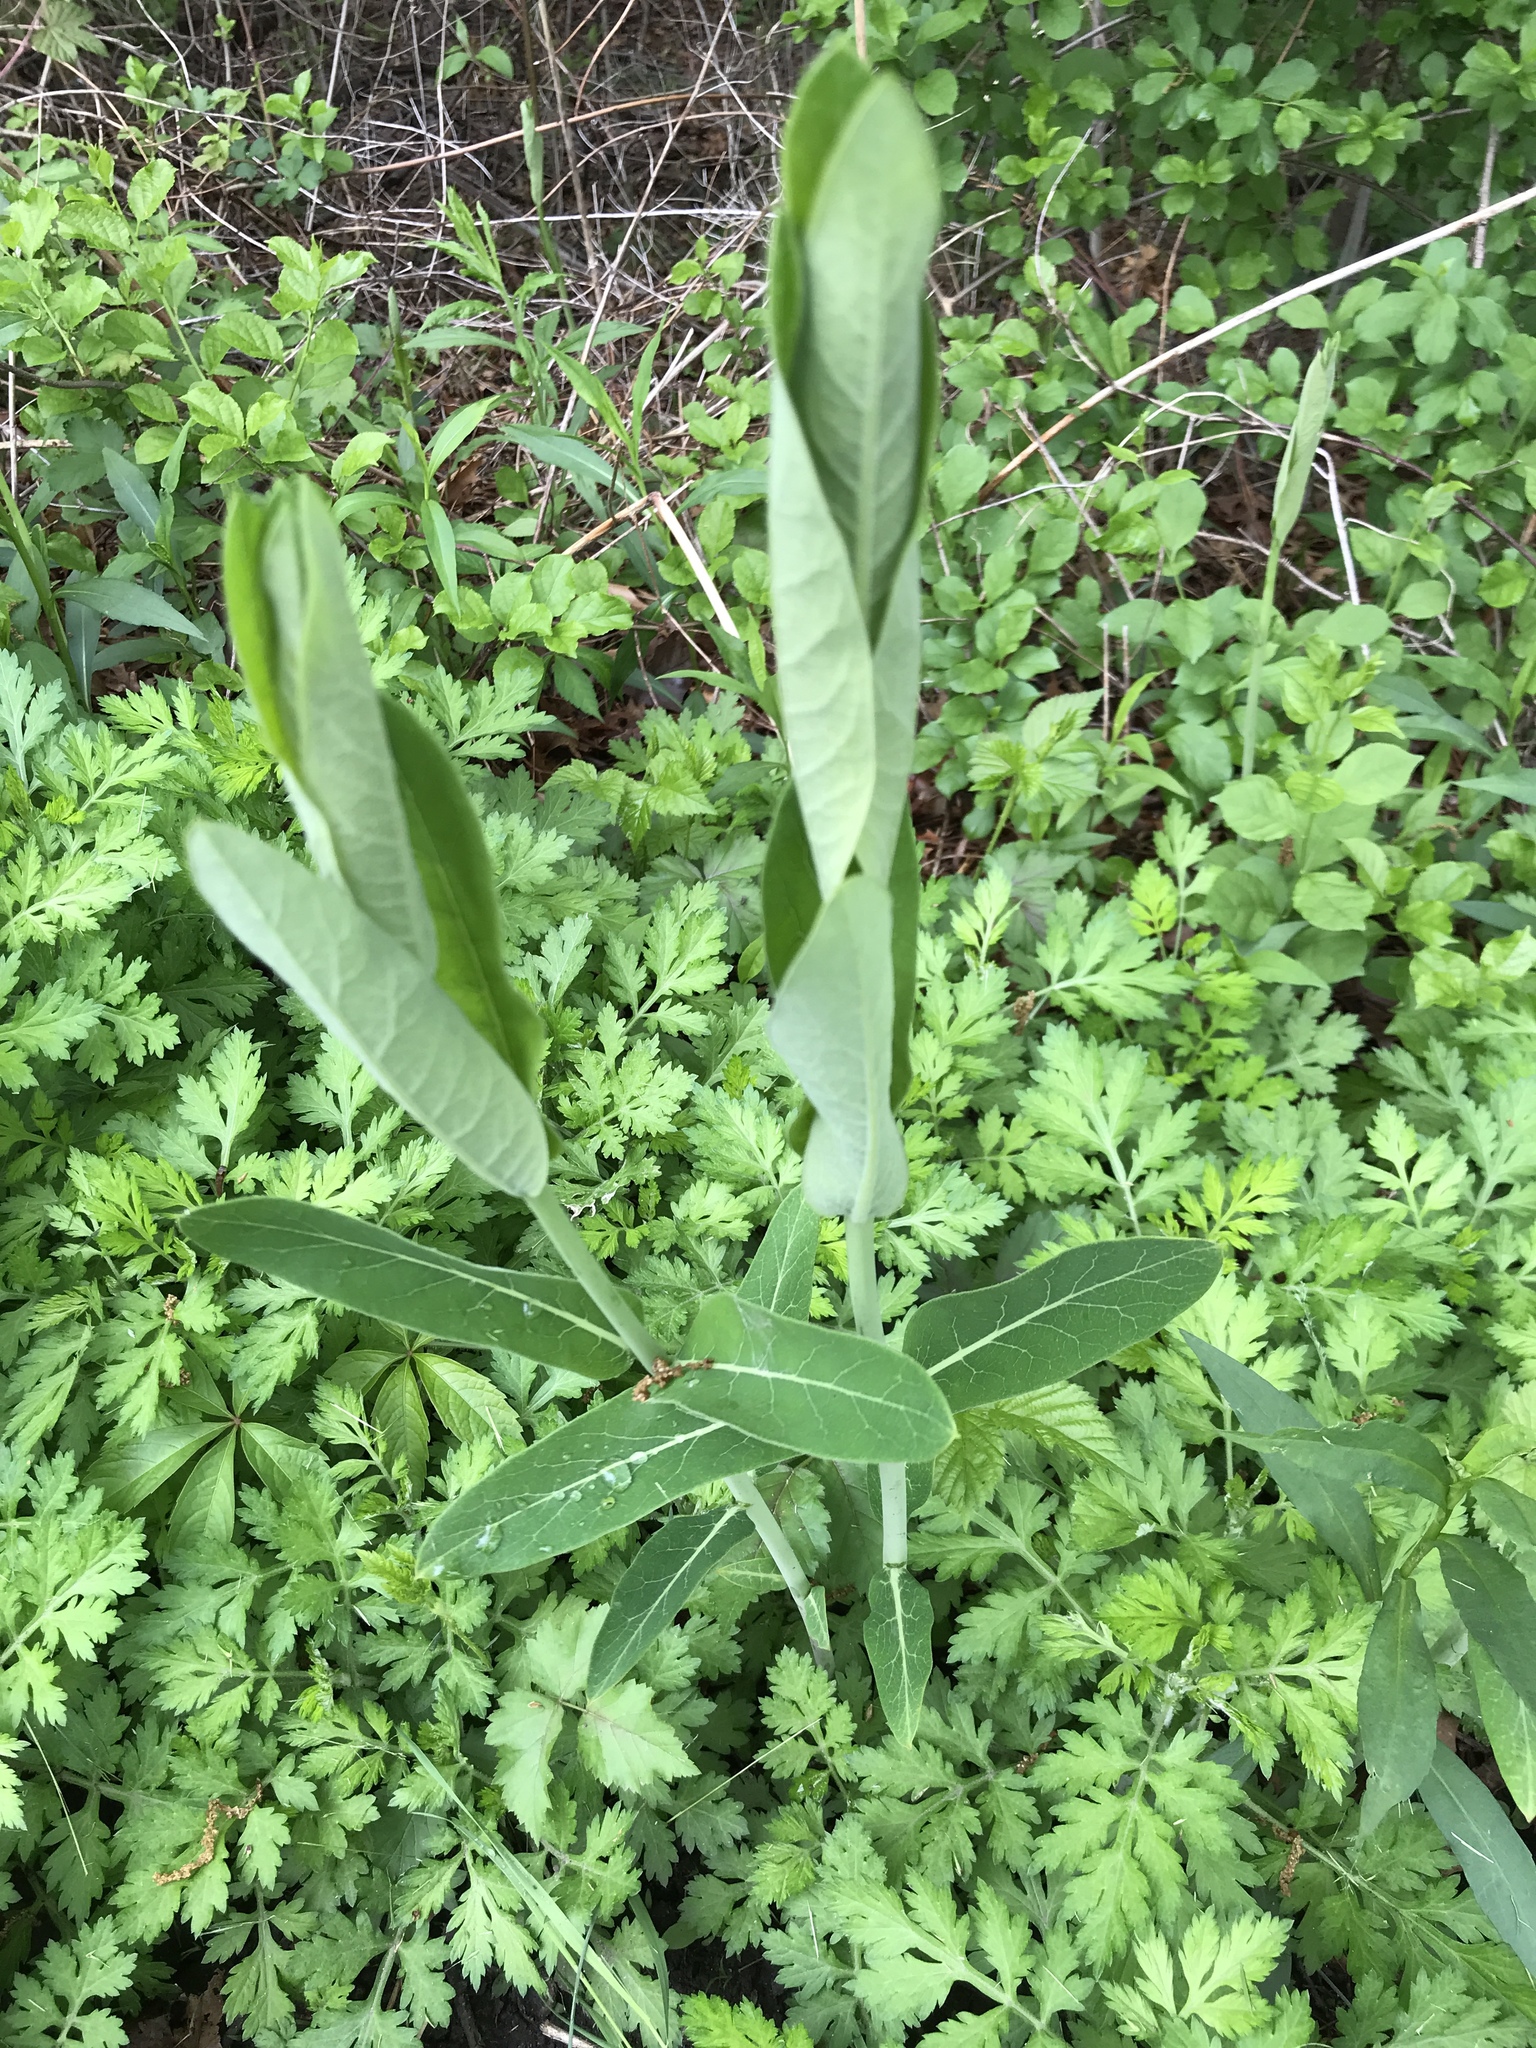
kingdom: Plantae
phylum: Tracheophyta
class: Magnoliopsida
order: Gentianales
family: Apocynaceae
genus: Apocynum
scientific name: Apocynum cannabinum
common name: Hemp dogbane
